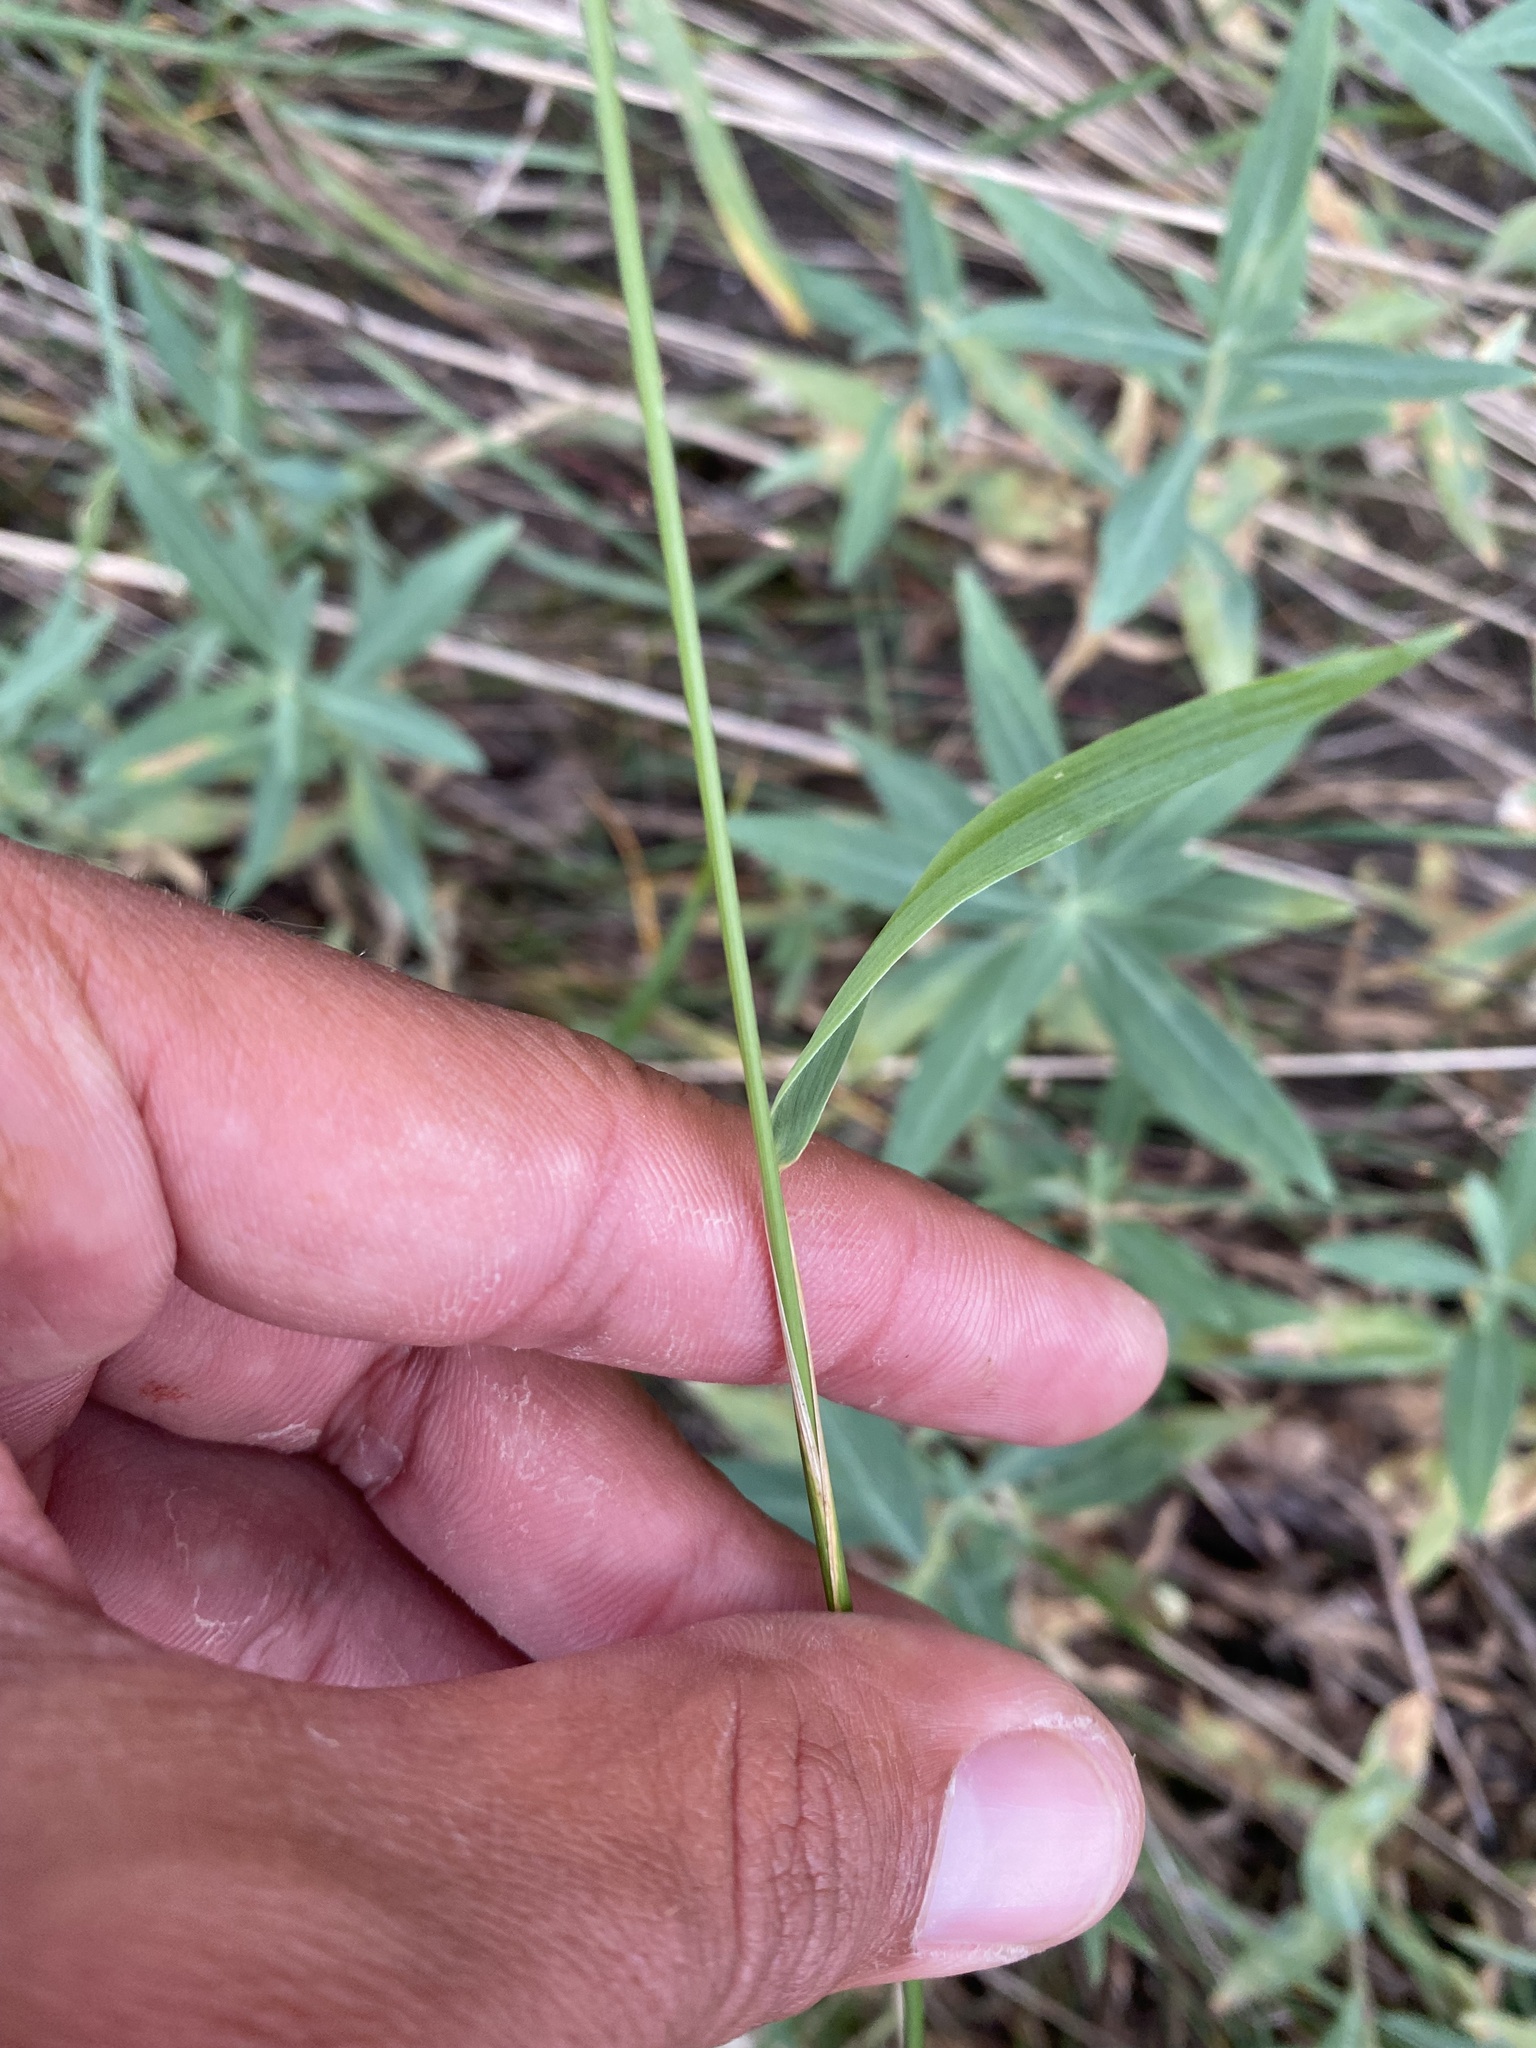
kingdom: Plantae
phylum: Tracheophyta
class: Liliopsida
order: Poales
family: Poaceae
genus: Elymus
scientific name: Elymus confusus
